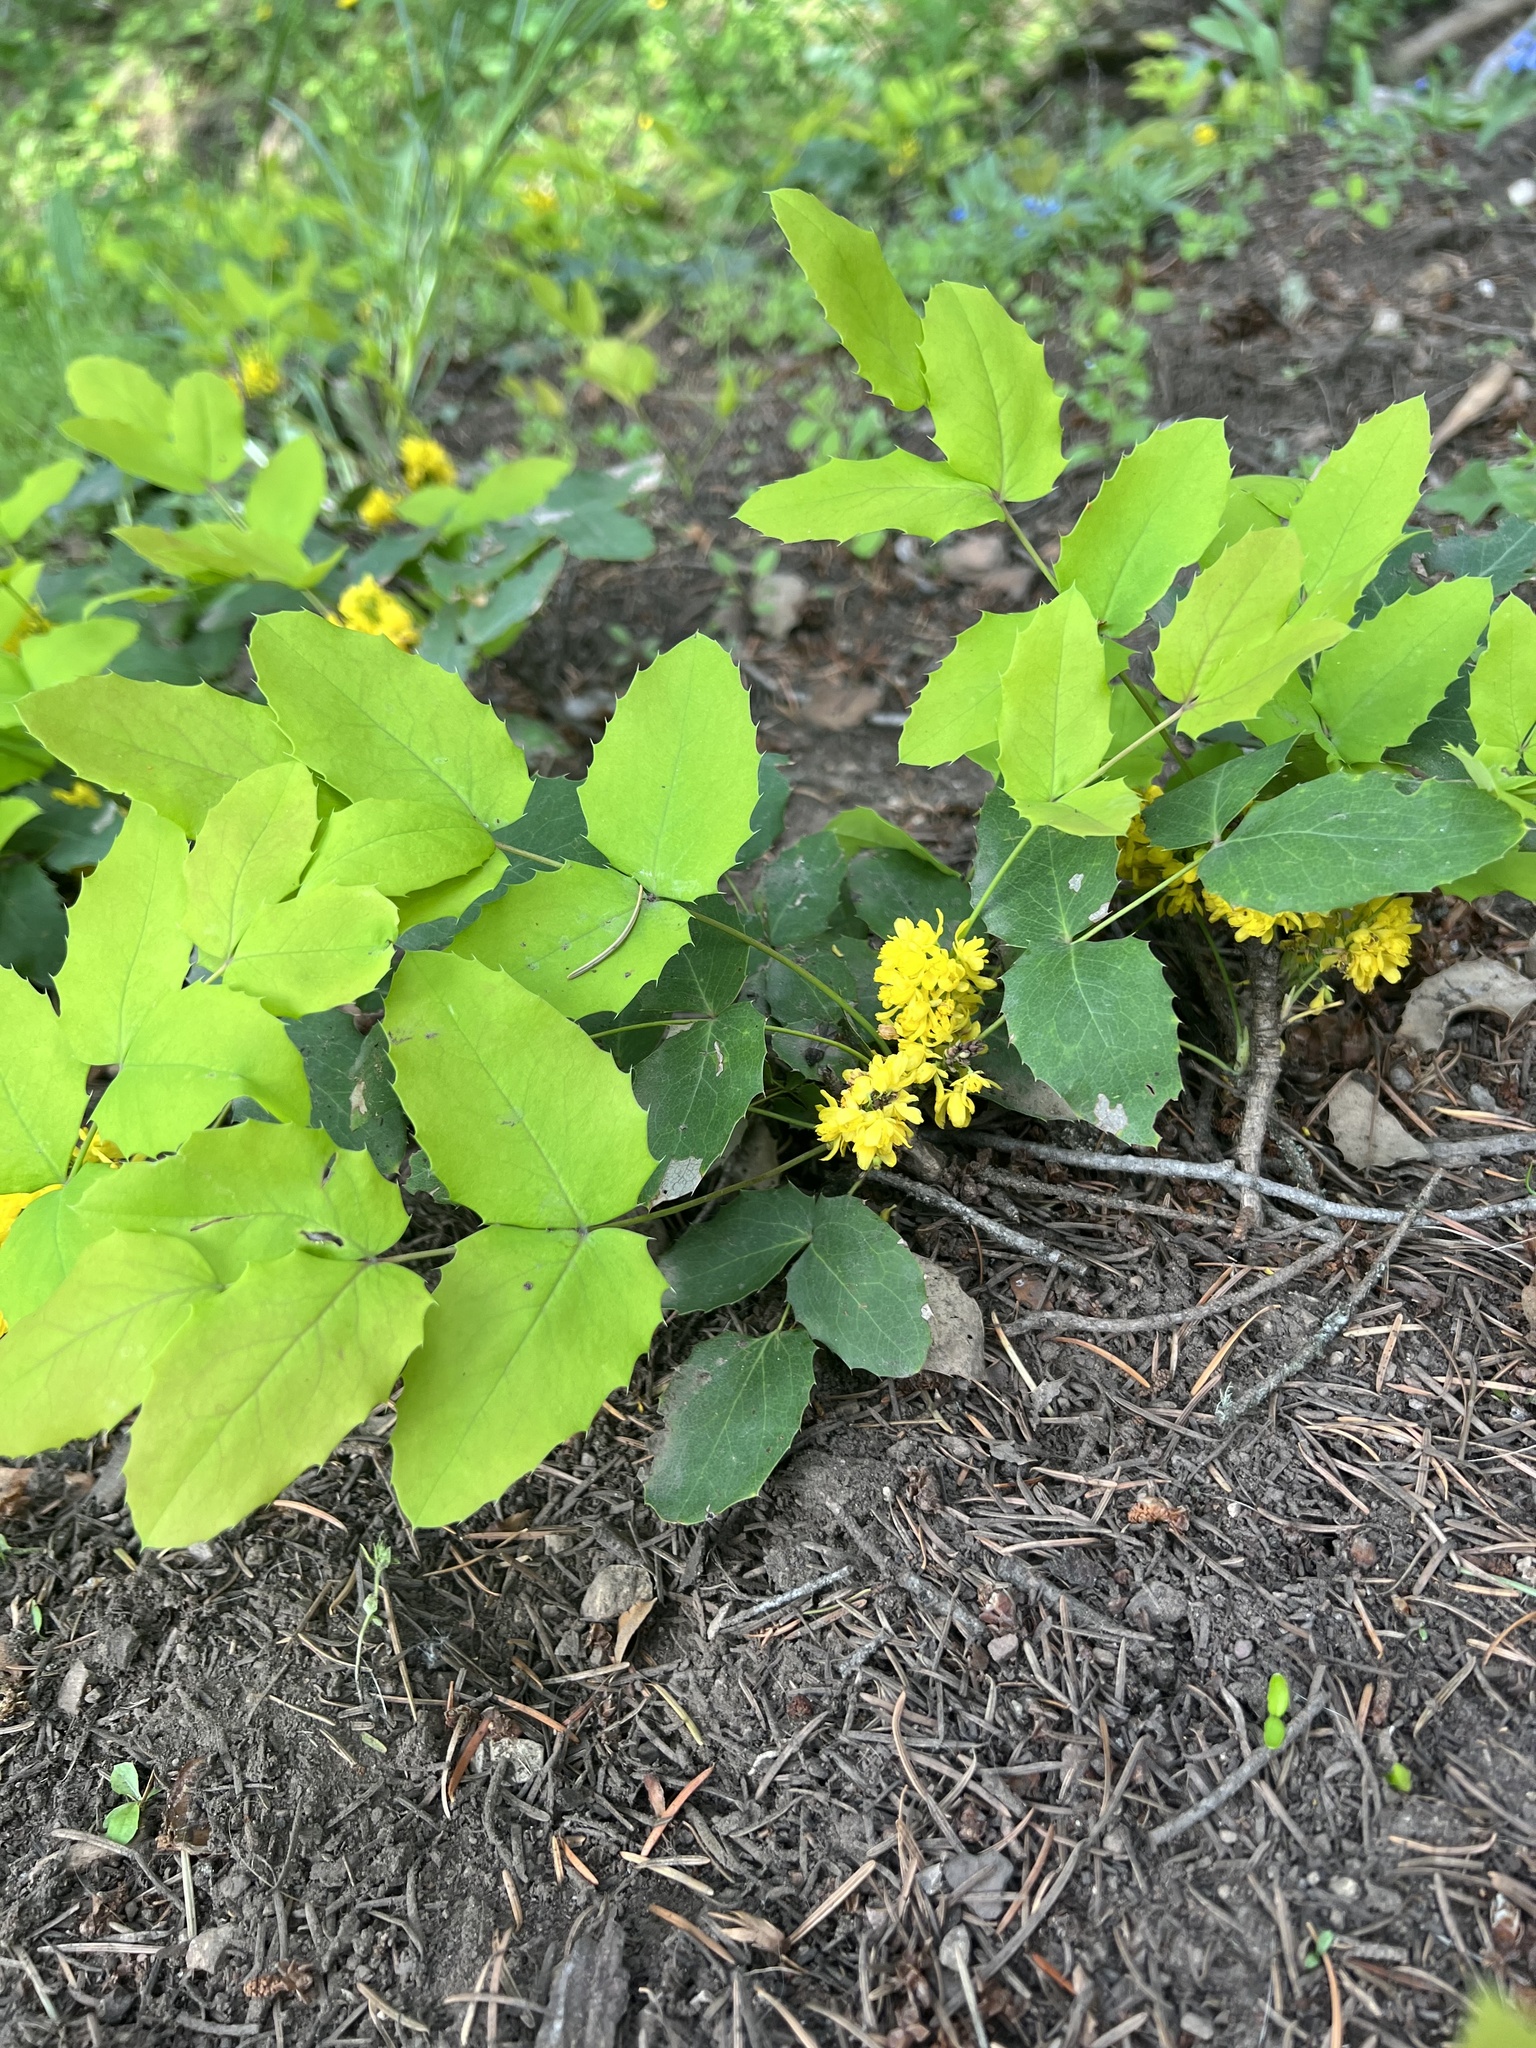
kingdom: Plantae
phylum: Tracheophyta
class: Magnoliopsida
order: Ranunculales
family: Berberidaceae
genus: Mahonia
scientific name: Mahonia repens
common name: Creeping oregon-grape
